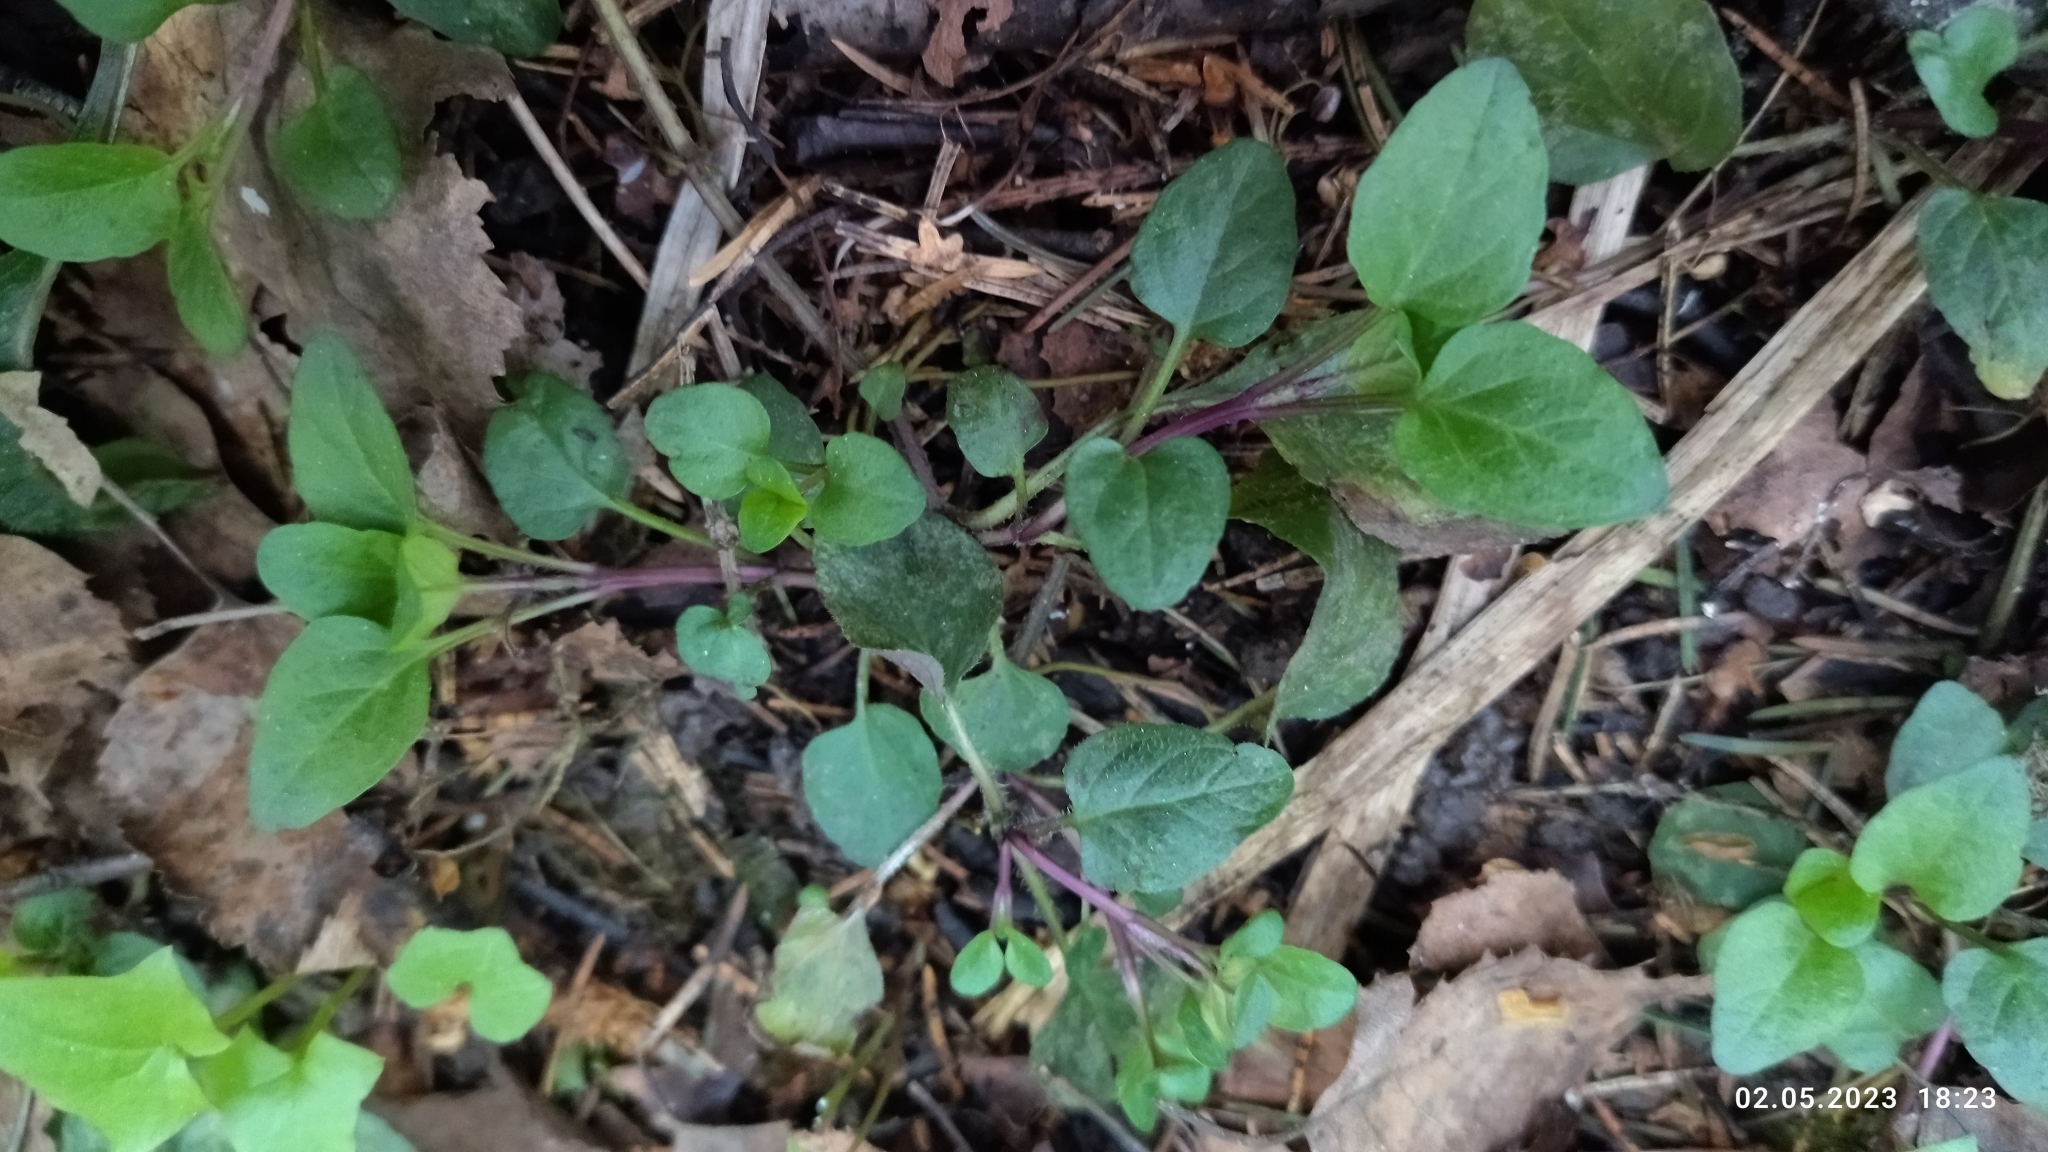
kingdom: Plantae
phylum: Tracheophyta
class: Magnoliopsida
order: Lamiales
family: Lamiaceae
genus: Prunella
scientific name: Prunella vulgaris
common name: Heal-all
